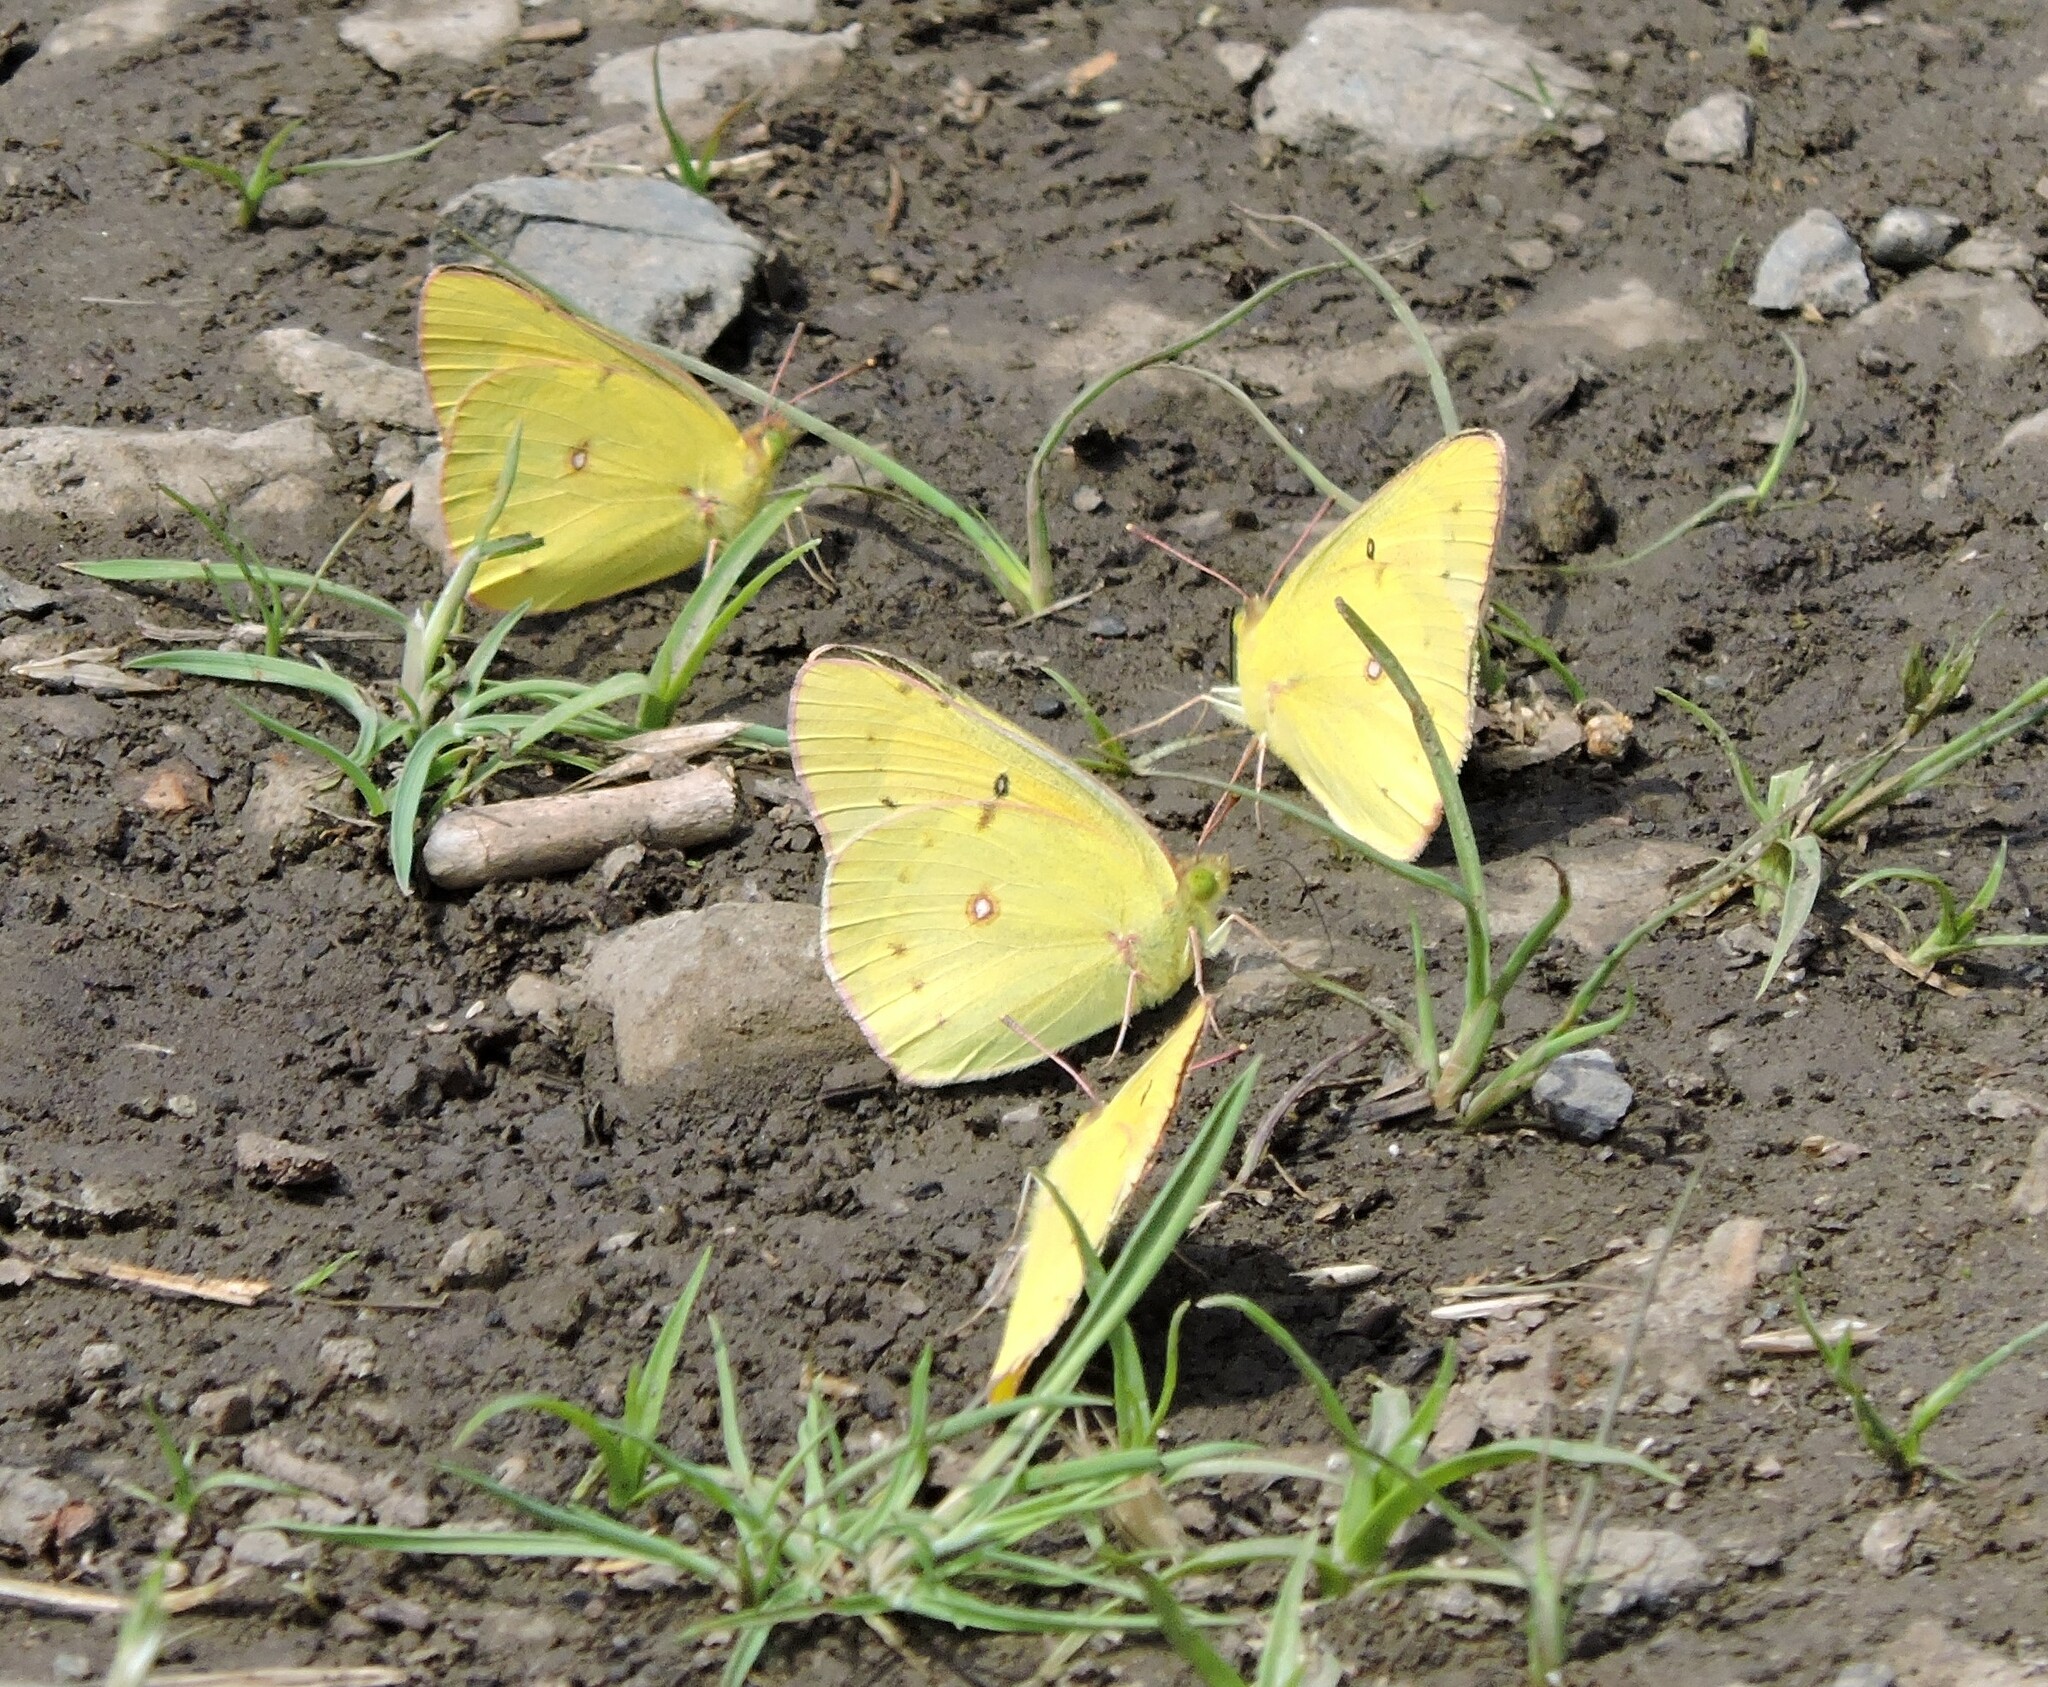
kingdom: Animalia
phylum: Arthropoda
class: Insecta
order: Lepidoptera
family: Pieridae
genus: Colias
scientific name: Colias eurytheme
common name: Alfalfa butterfly
